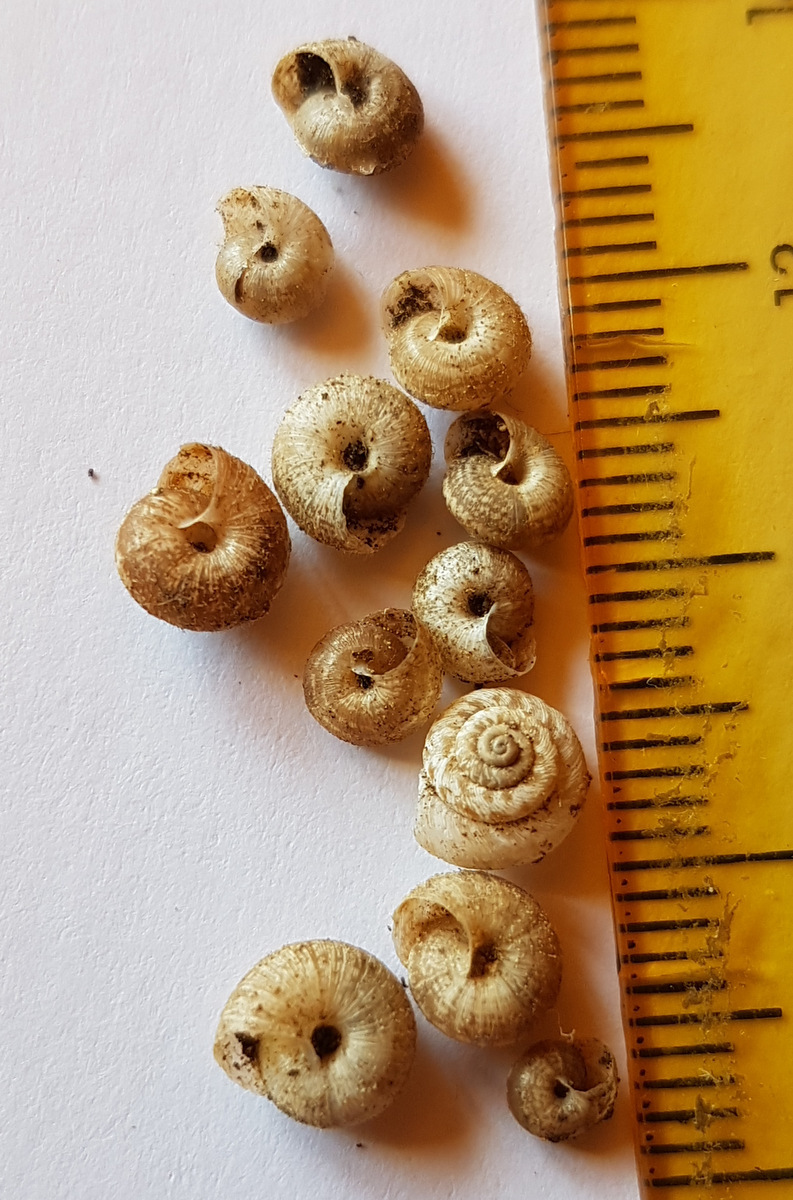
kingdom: Animalia
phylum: Mollusca
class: Gastropoda
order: Stylommatophora
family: Geomitridae
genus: Xerotricha
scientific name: Xerotricha conspurcata
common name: Snail
